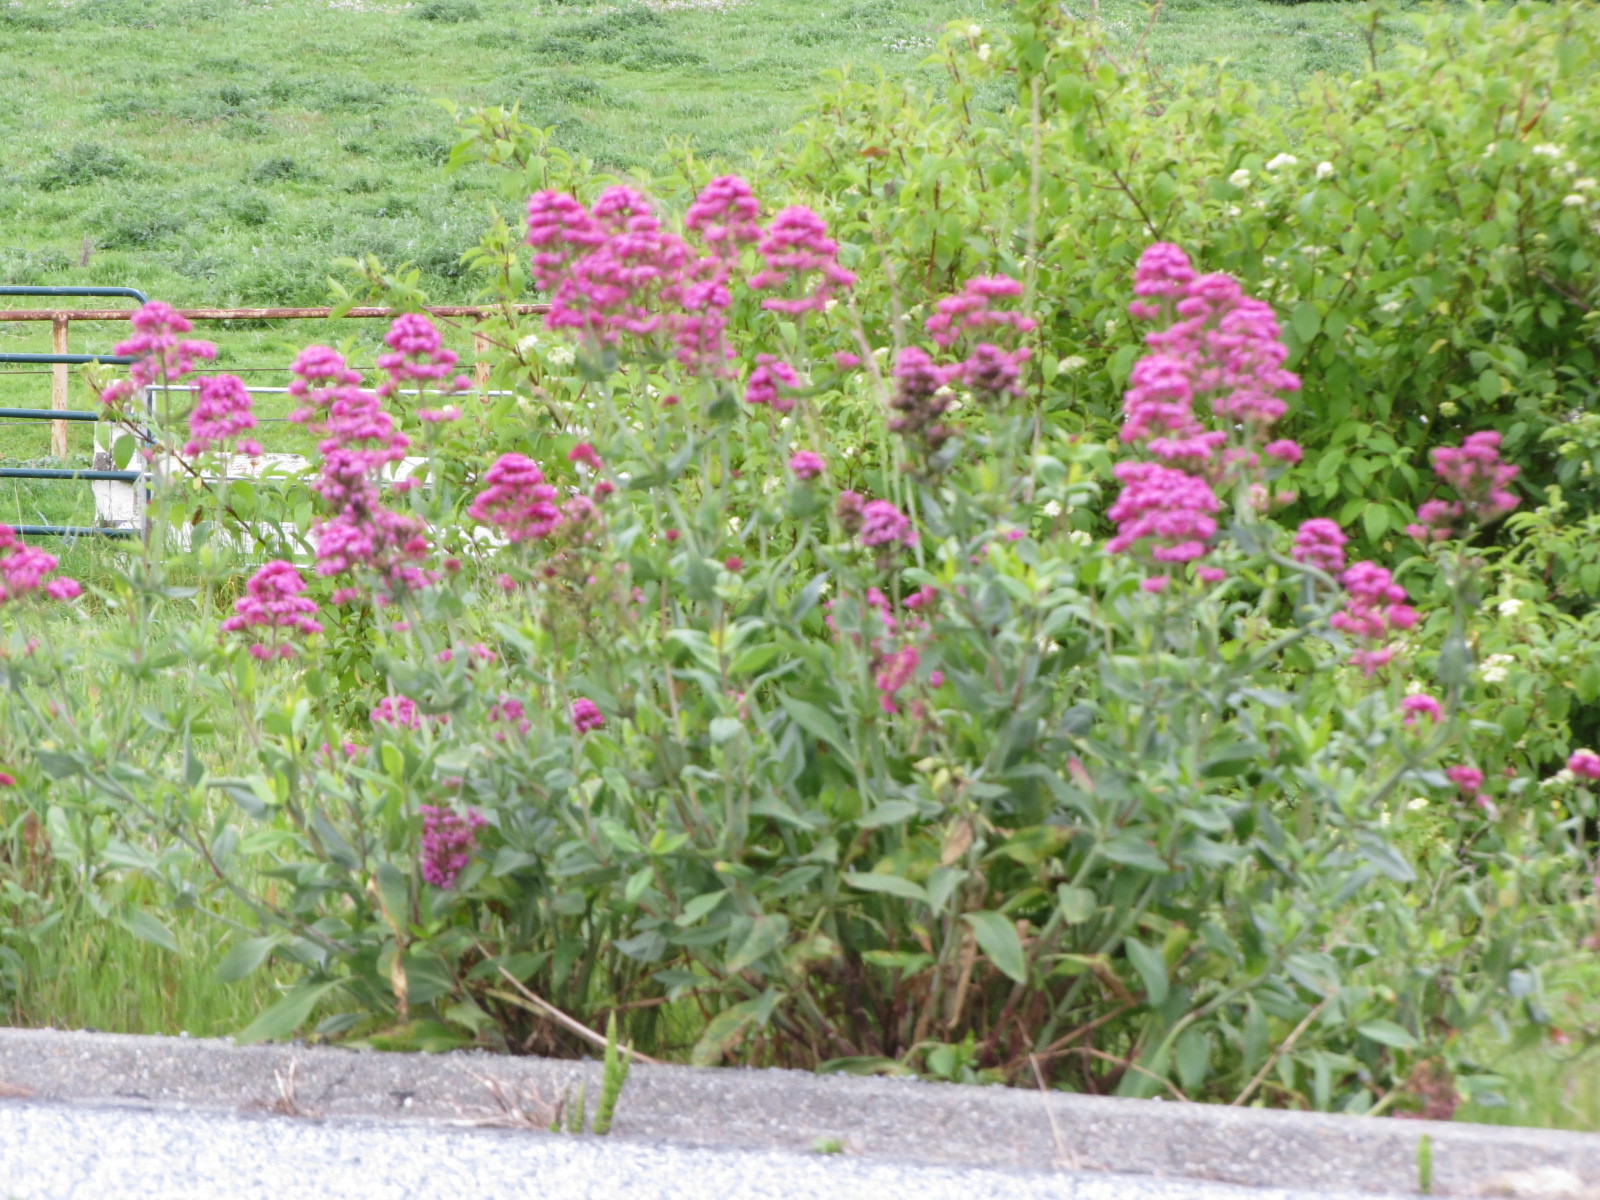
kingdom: Plantae
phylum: Tracheophyta
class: Magnoliopsida
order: Dipsacales
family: Caprifoliaceae
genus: Centranthus
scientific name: Centranthus ruber
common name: Red valerian
